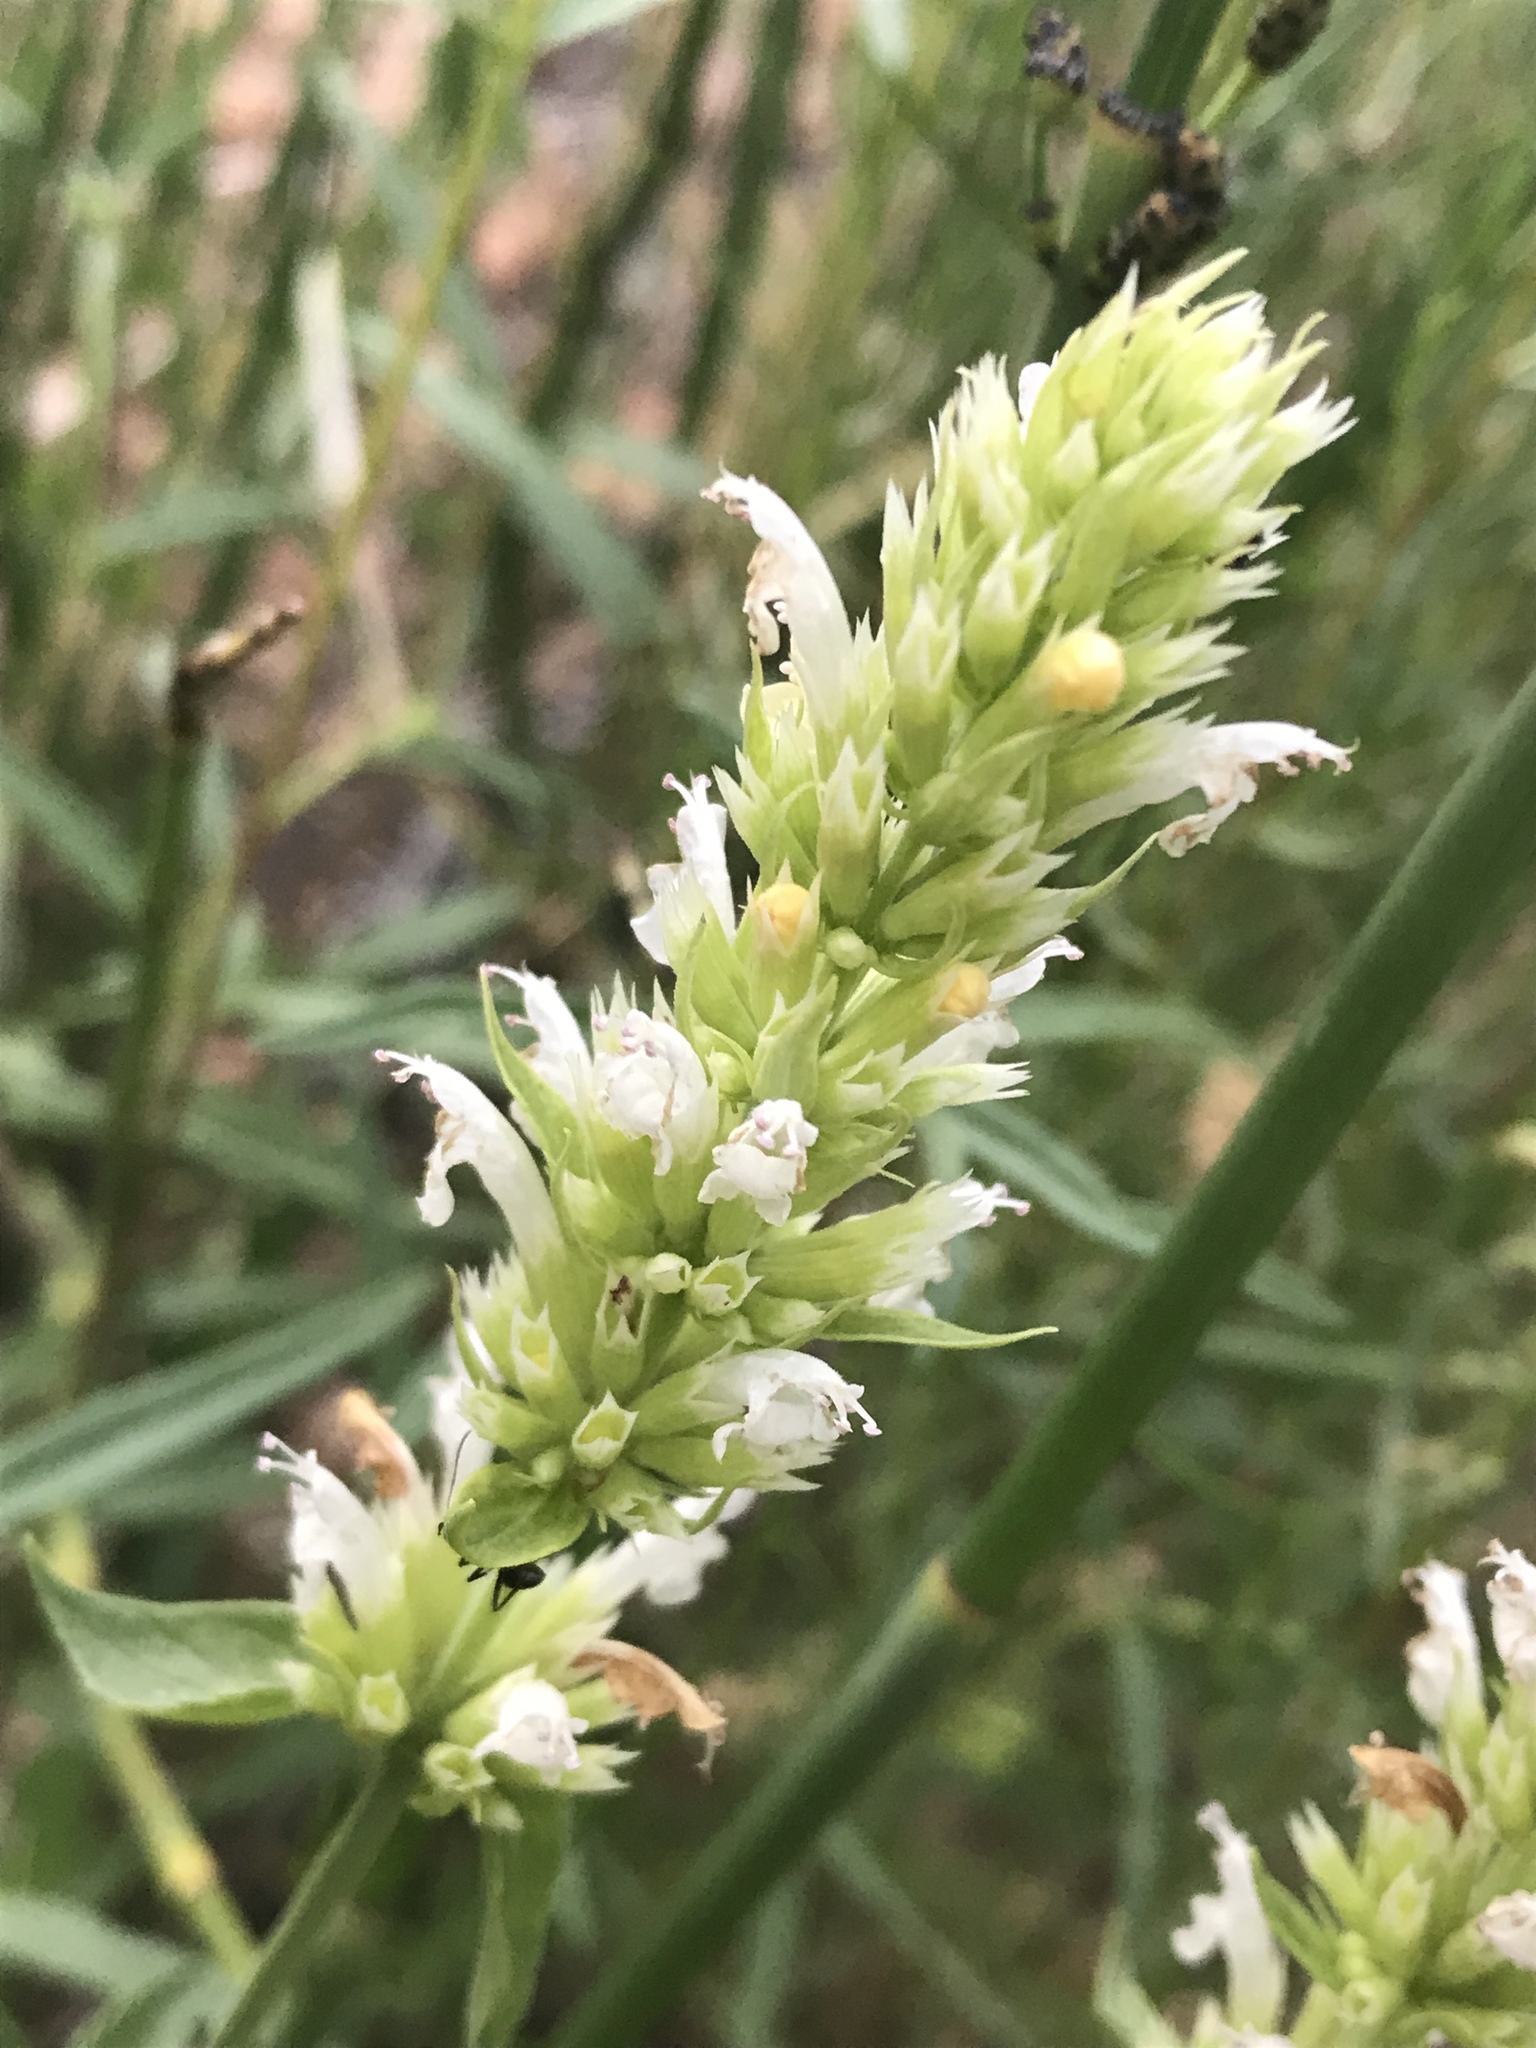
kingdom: Plantae
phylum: Tracheophyta
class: Magnoliopsida
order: Lamiales
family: Lamiaceae
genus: Agastache
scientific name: Agastache pallidiflora
